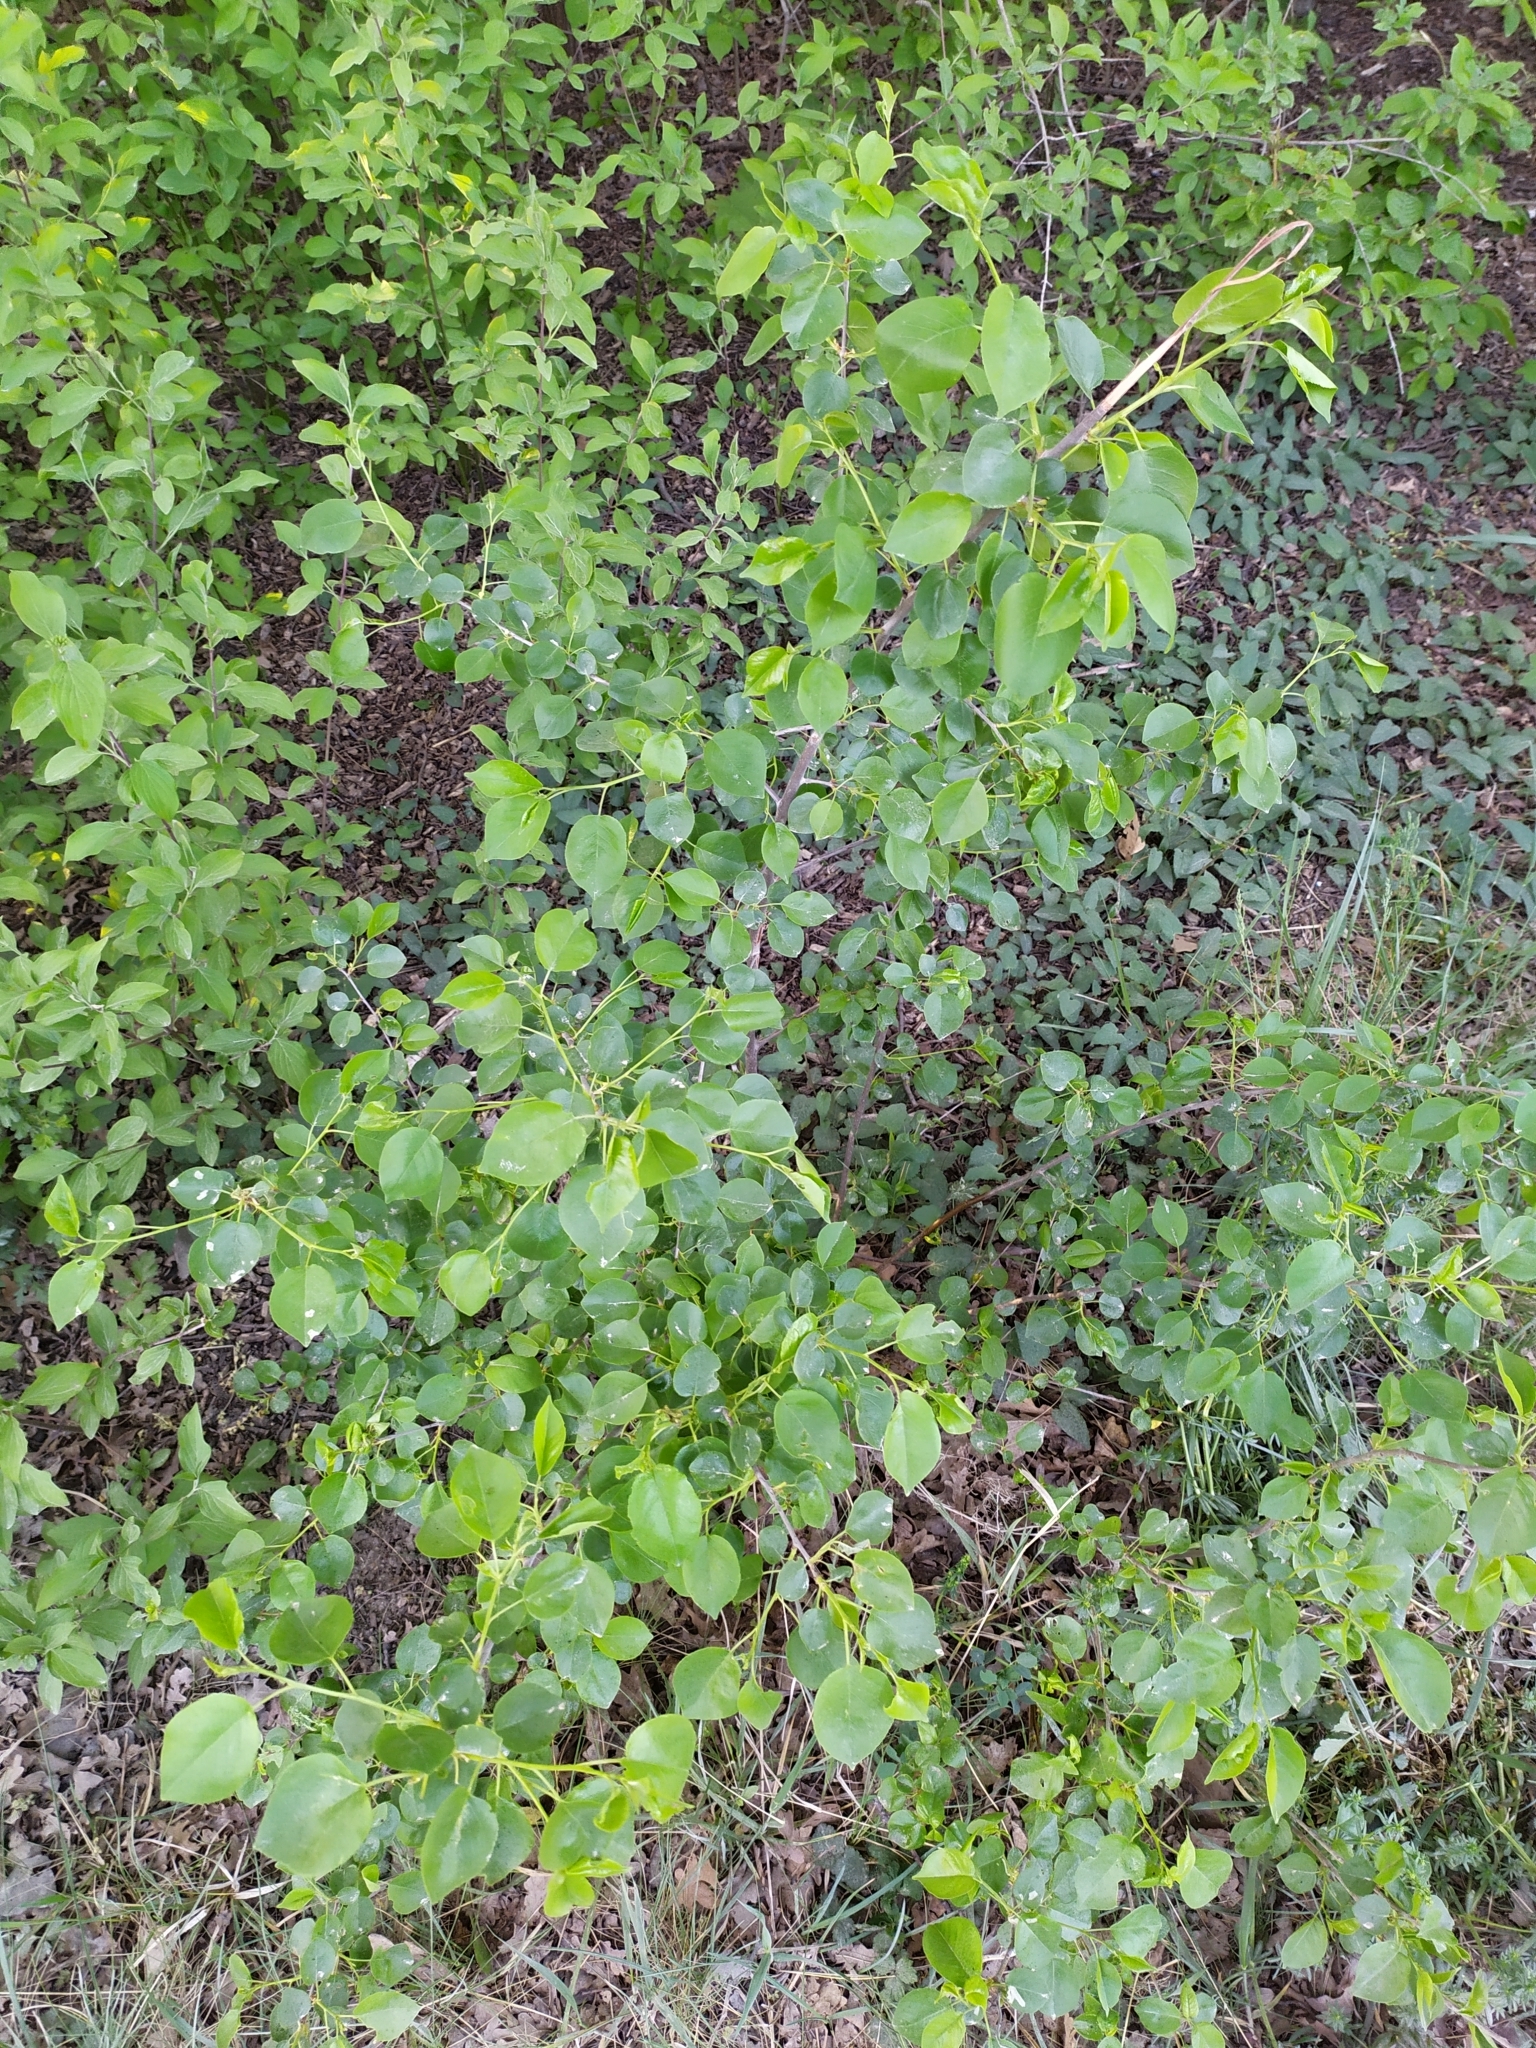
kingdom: Plantae
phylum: Tracheophyta
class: Magnoliopsida
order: Rosales
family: Rosaceae
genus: Prunus
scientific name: Prunus mahaleb
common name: Mahaleb cherry
